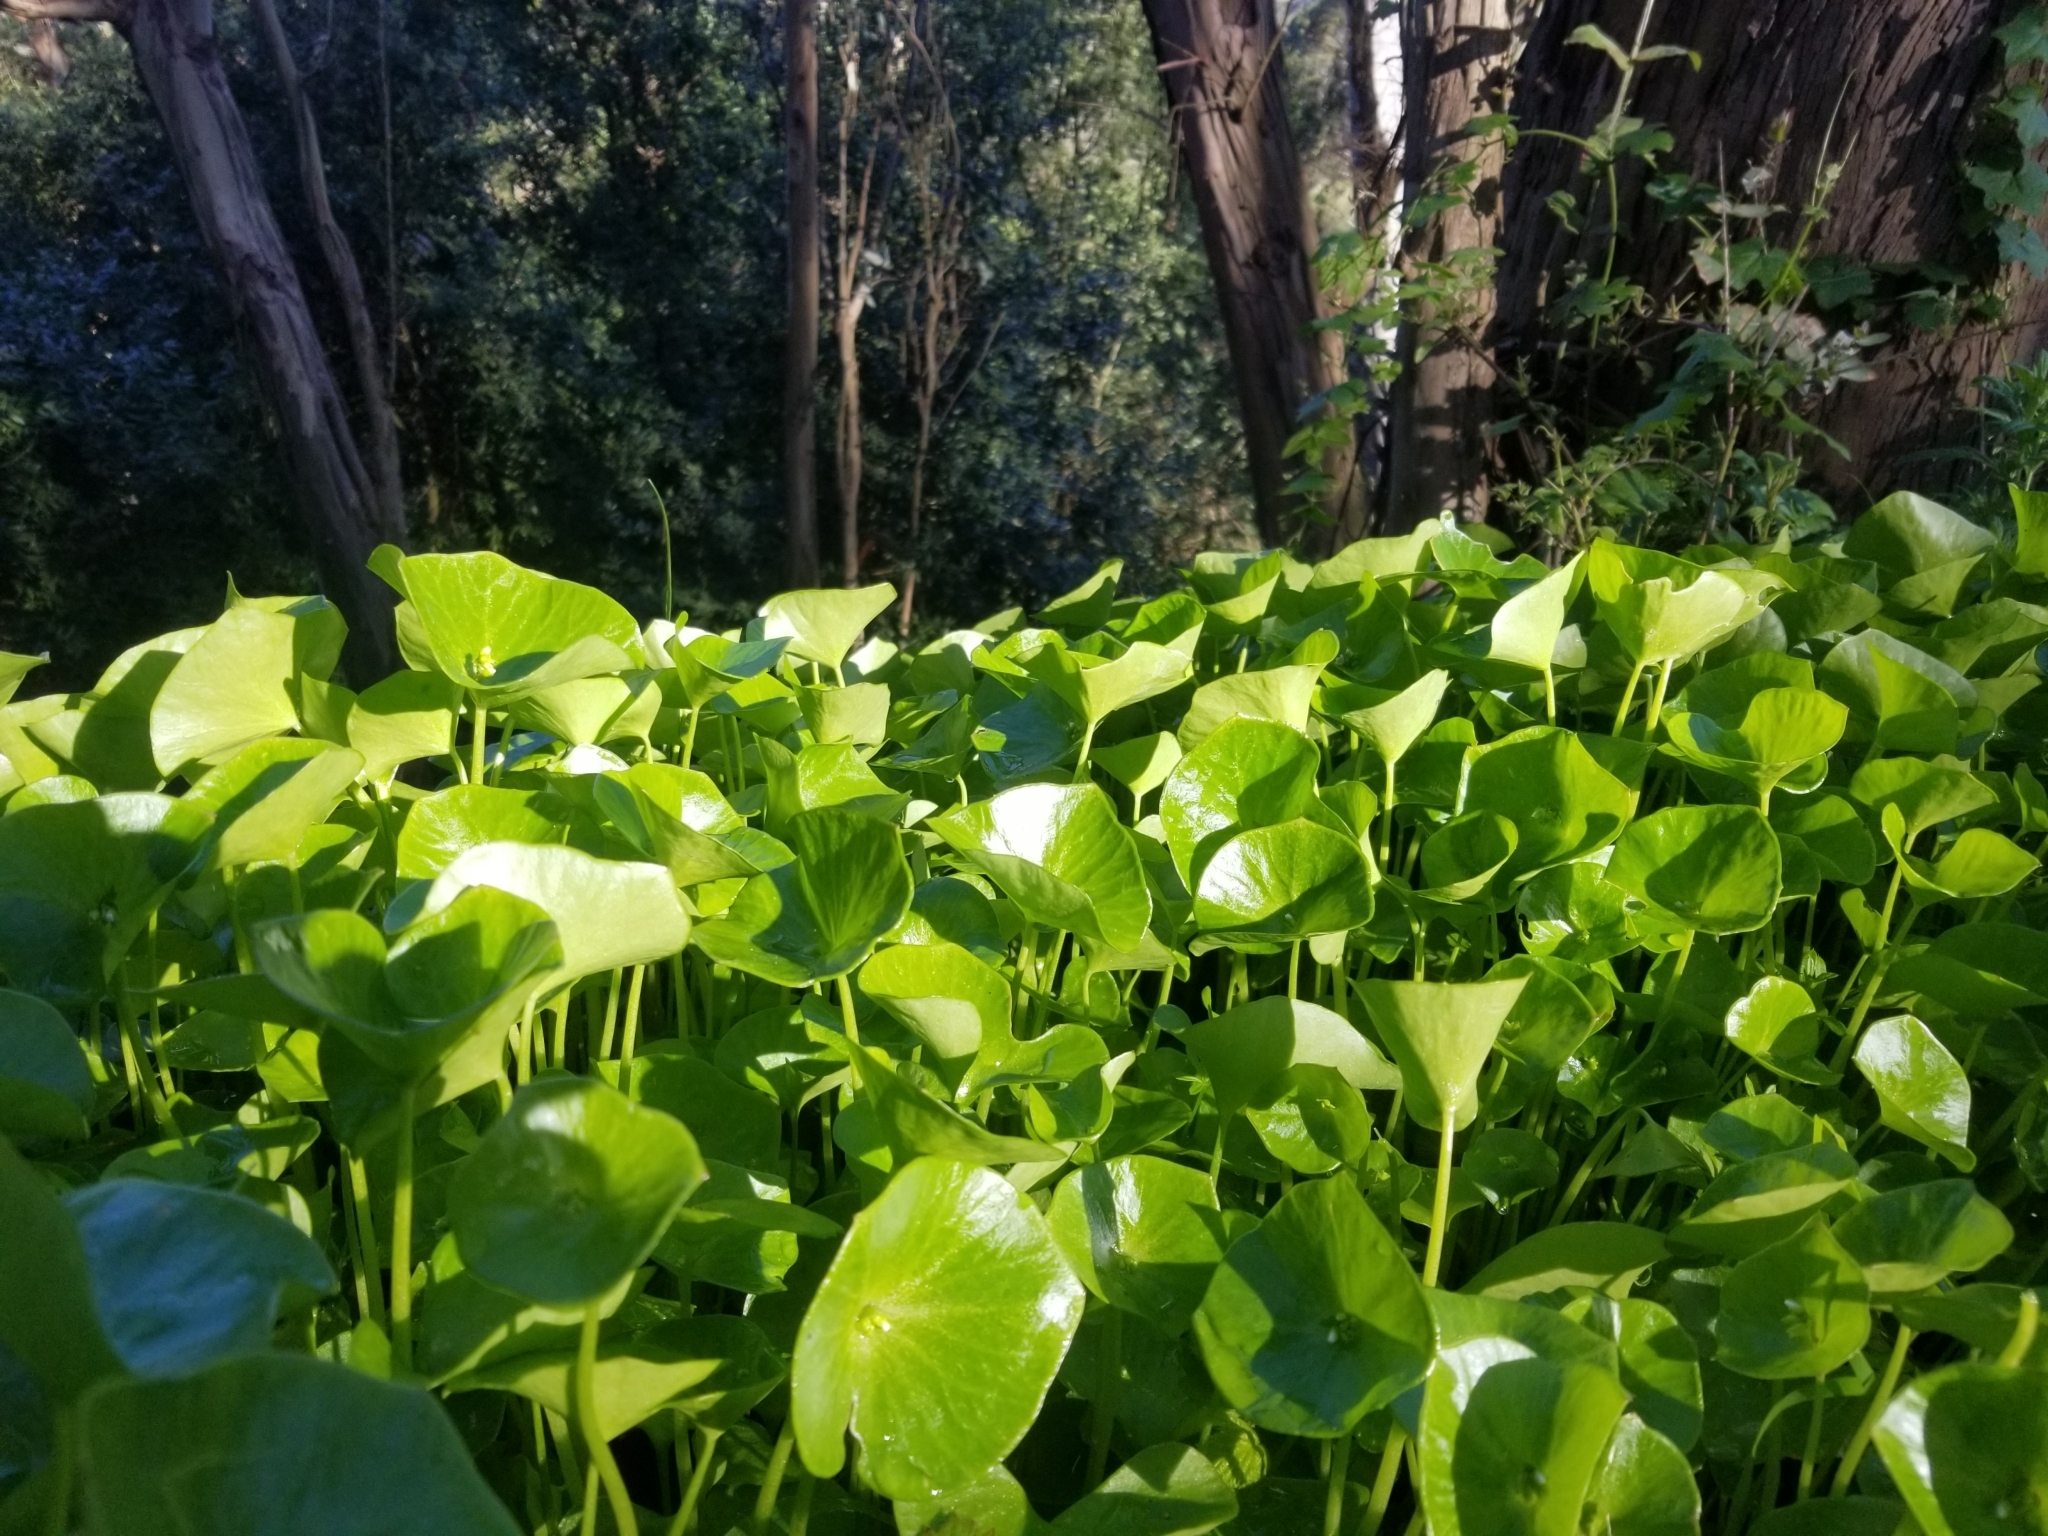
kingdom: Plantae
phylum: Tracheophyta
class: Magnoliopsida
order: Caryophyllales
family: Montiaceae
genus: Claytonia
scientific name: Claytonia perfoliata
